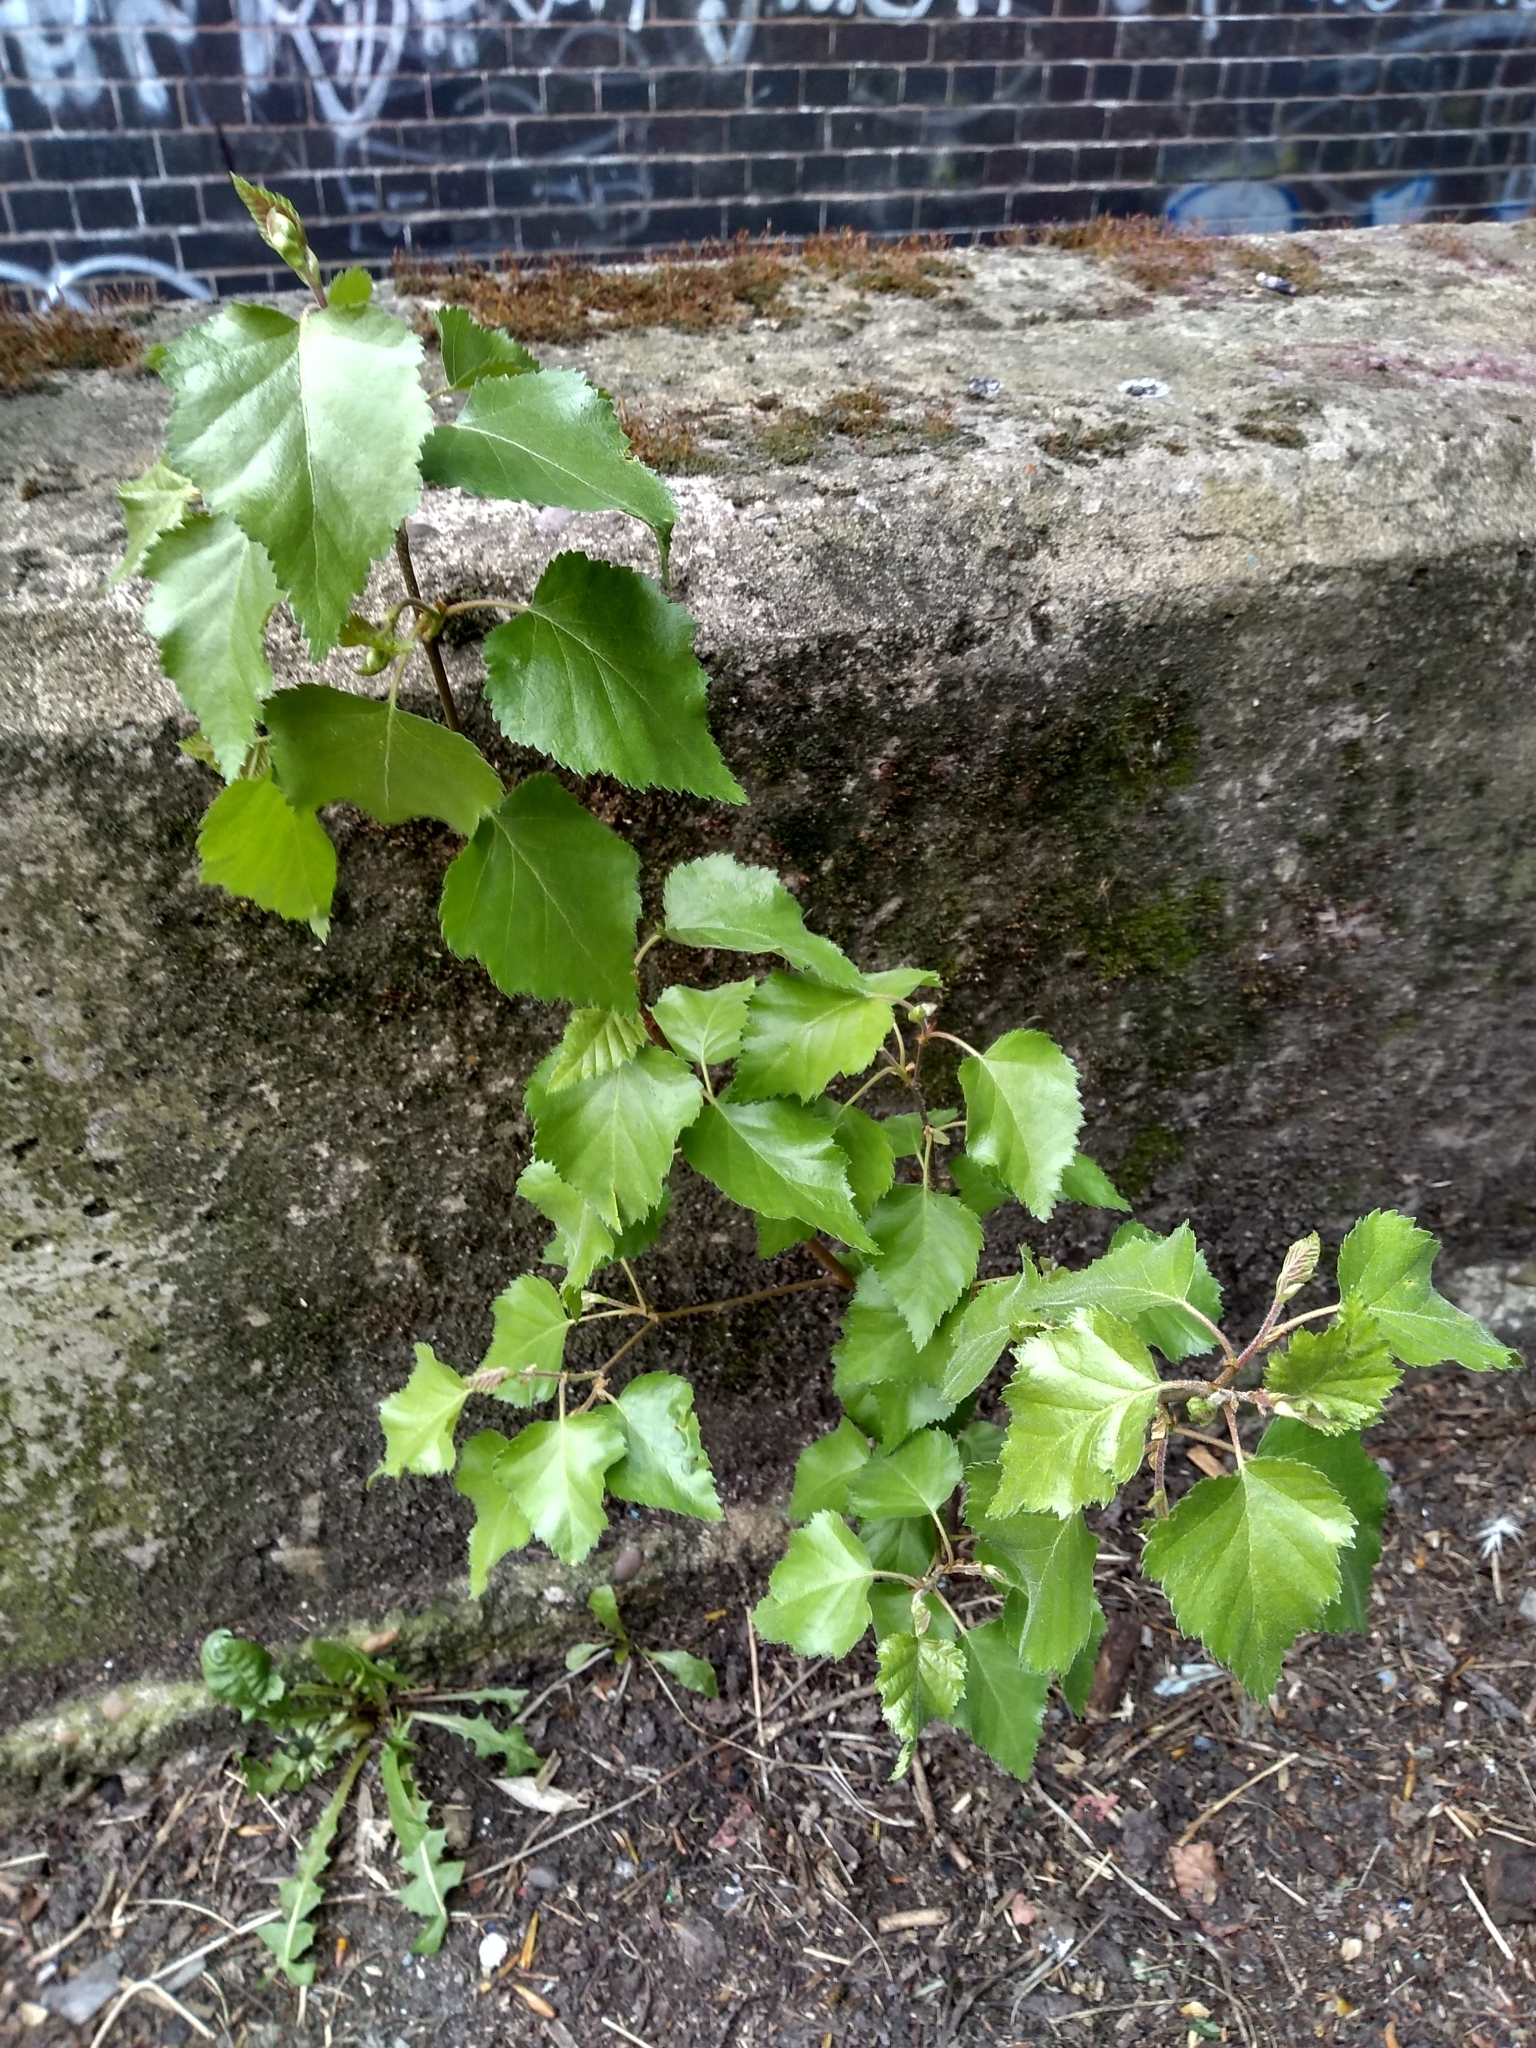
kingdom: Plantae
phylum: Tracheophyta
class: Magnoliopsida
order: Fagales
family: Betulaceae
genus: Betula
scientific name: Betula pendula
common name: Silver birch
